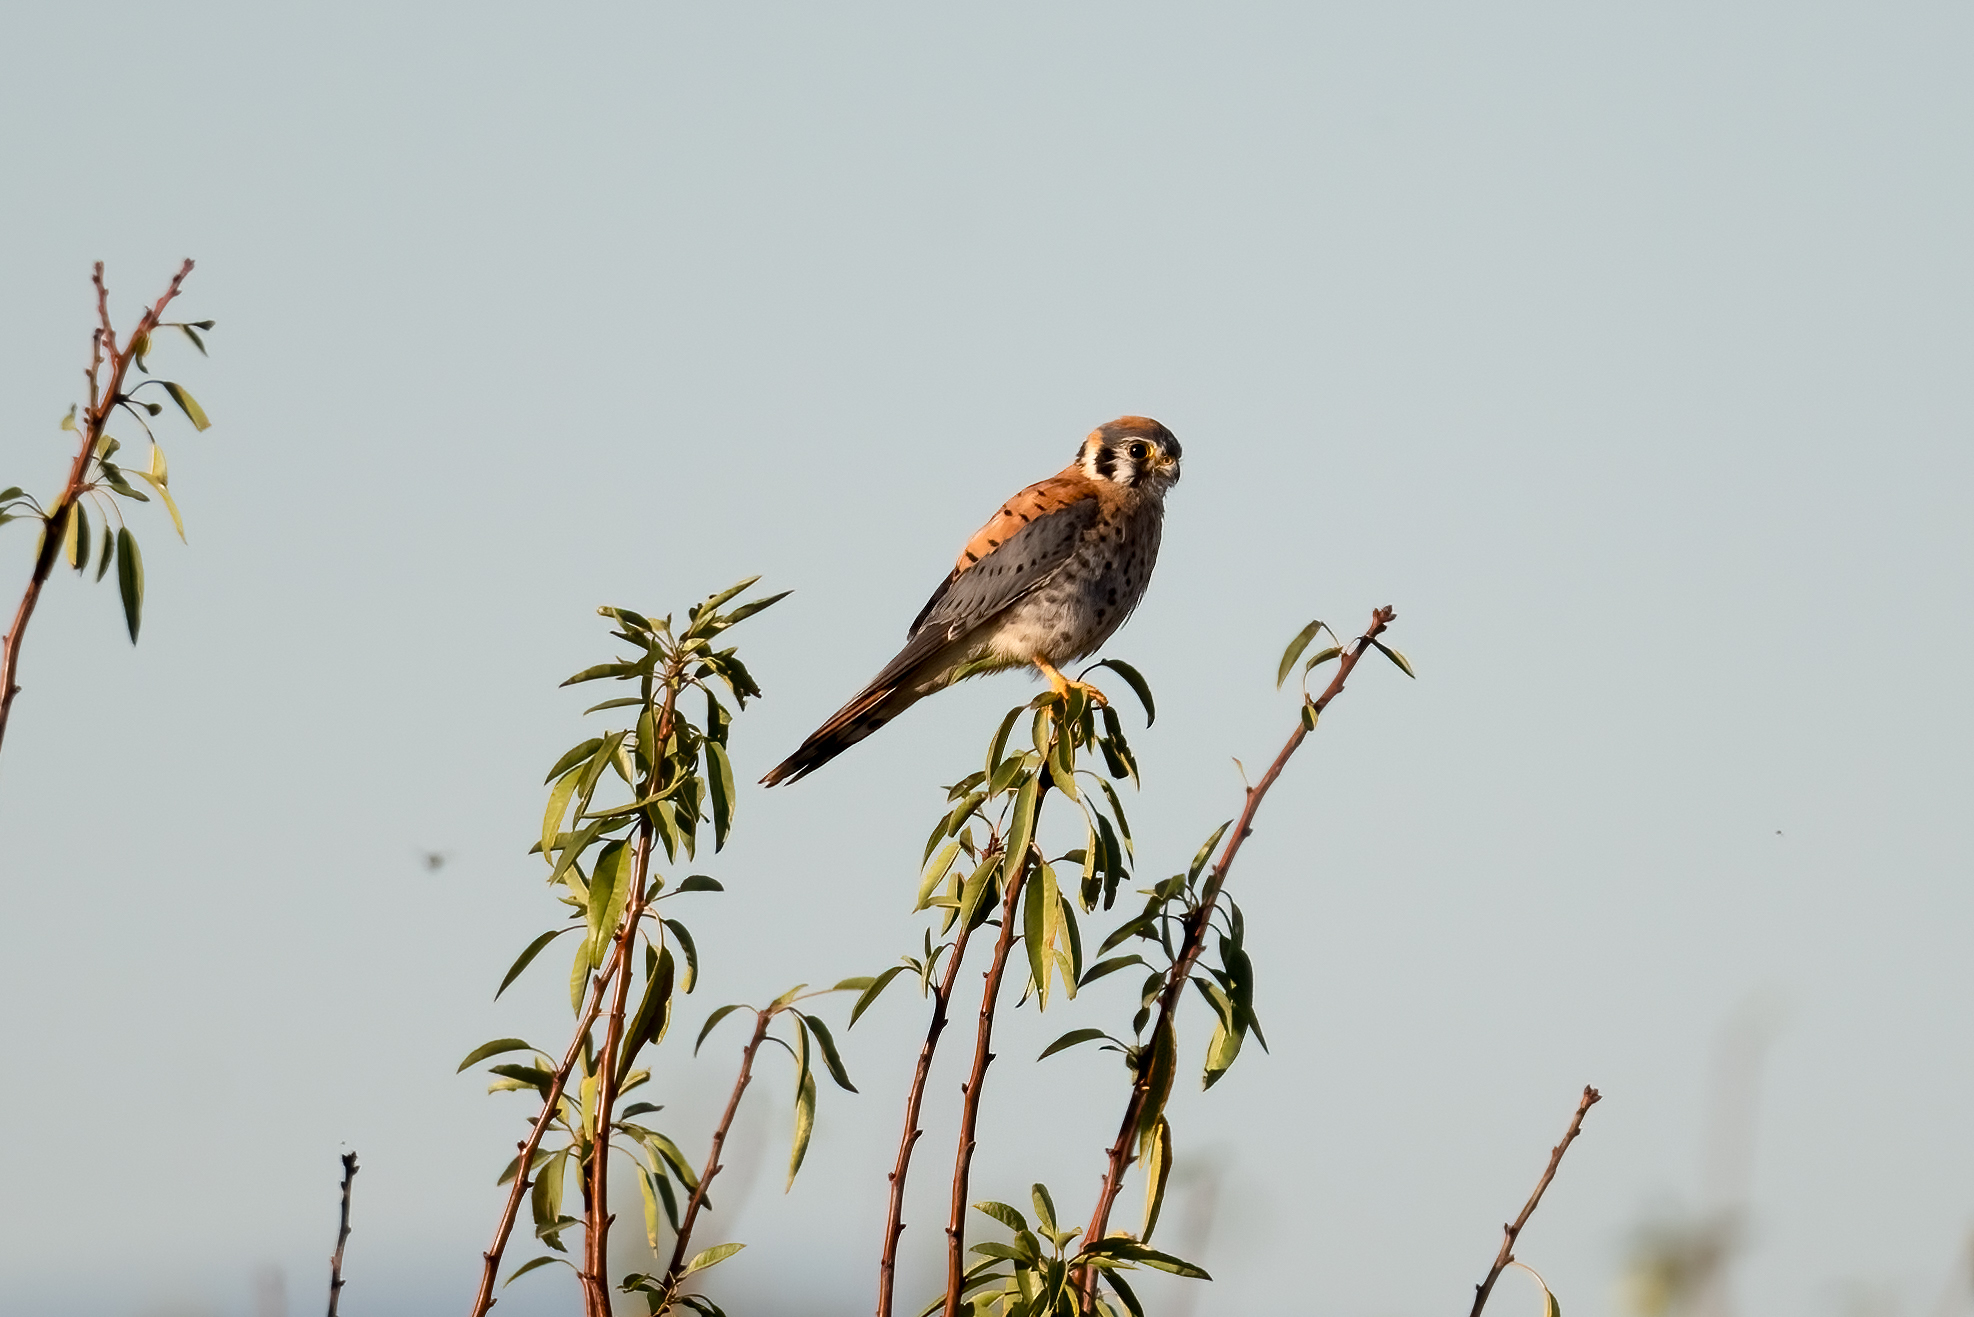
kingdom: Animalia
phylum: Chordata
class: Aves
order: Falconiformes
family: Falconidae
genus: Falco
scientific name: Falco sparverius
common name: American kestrel
